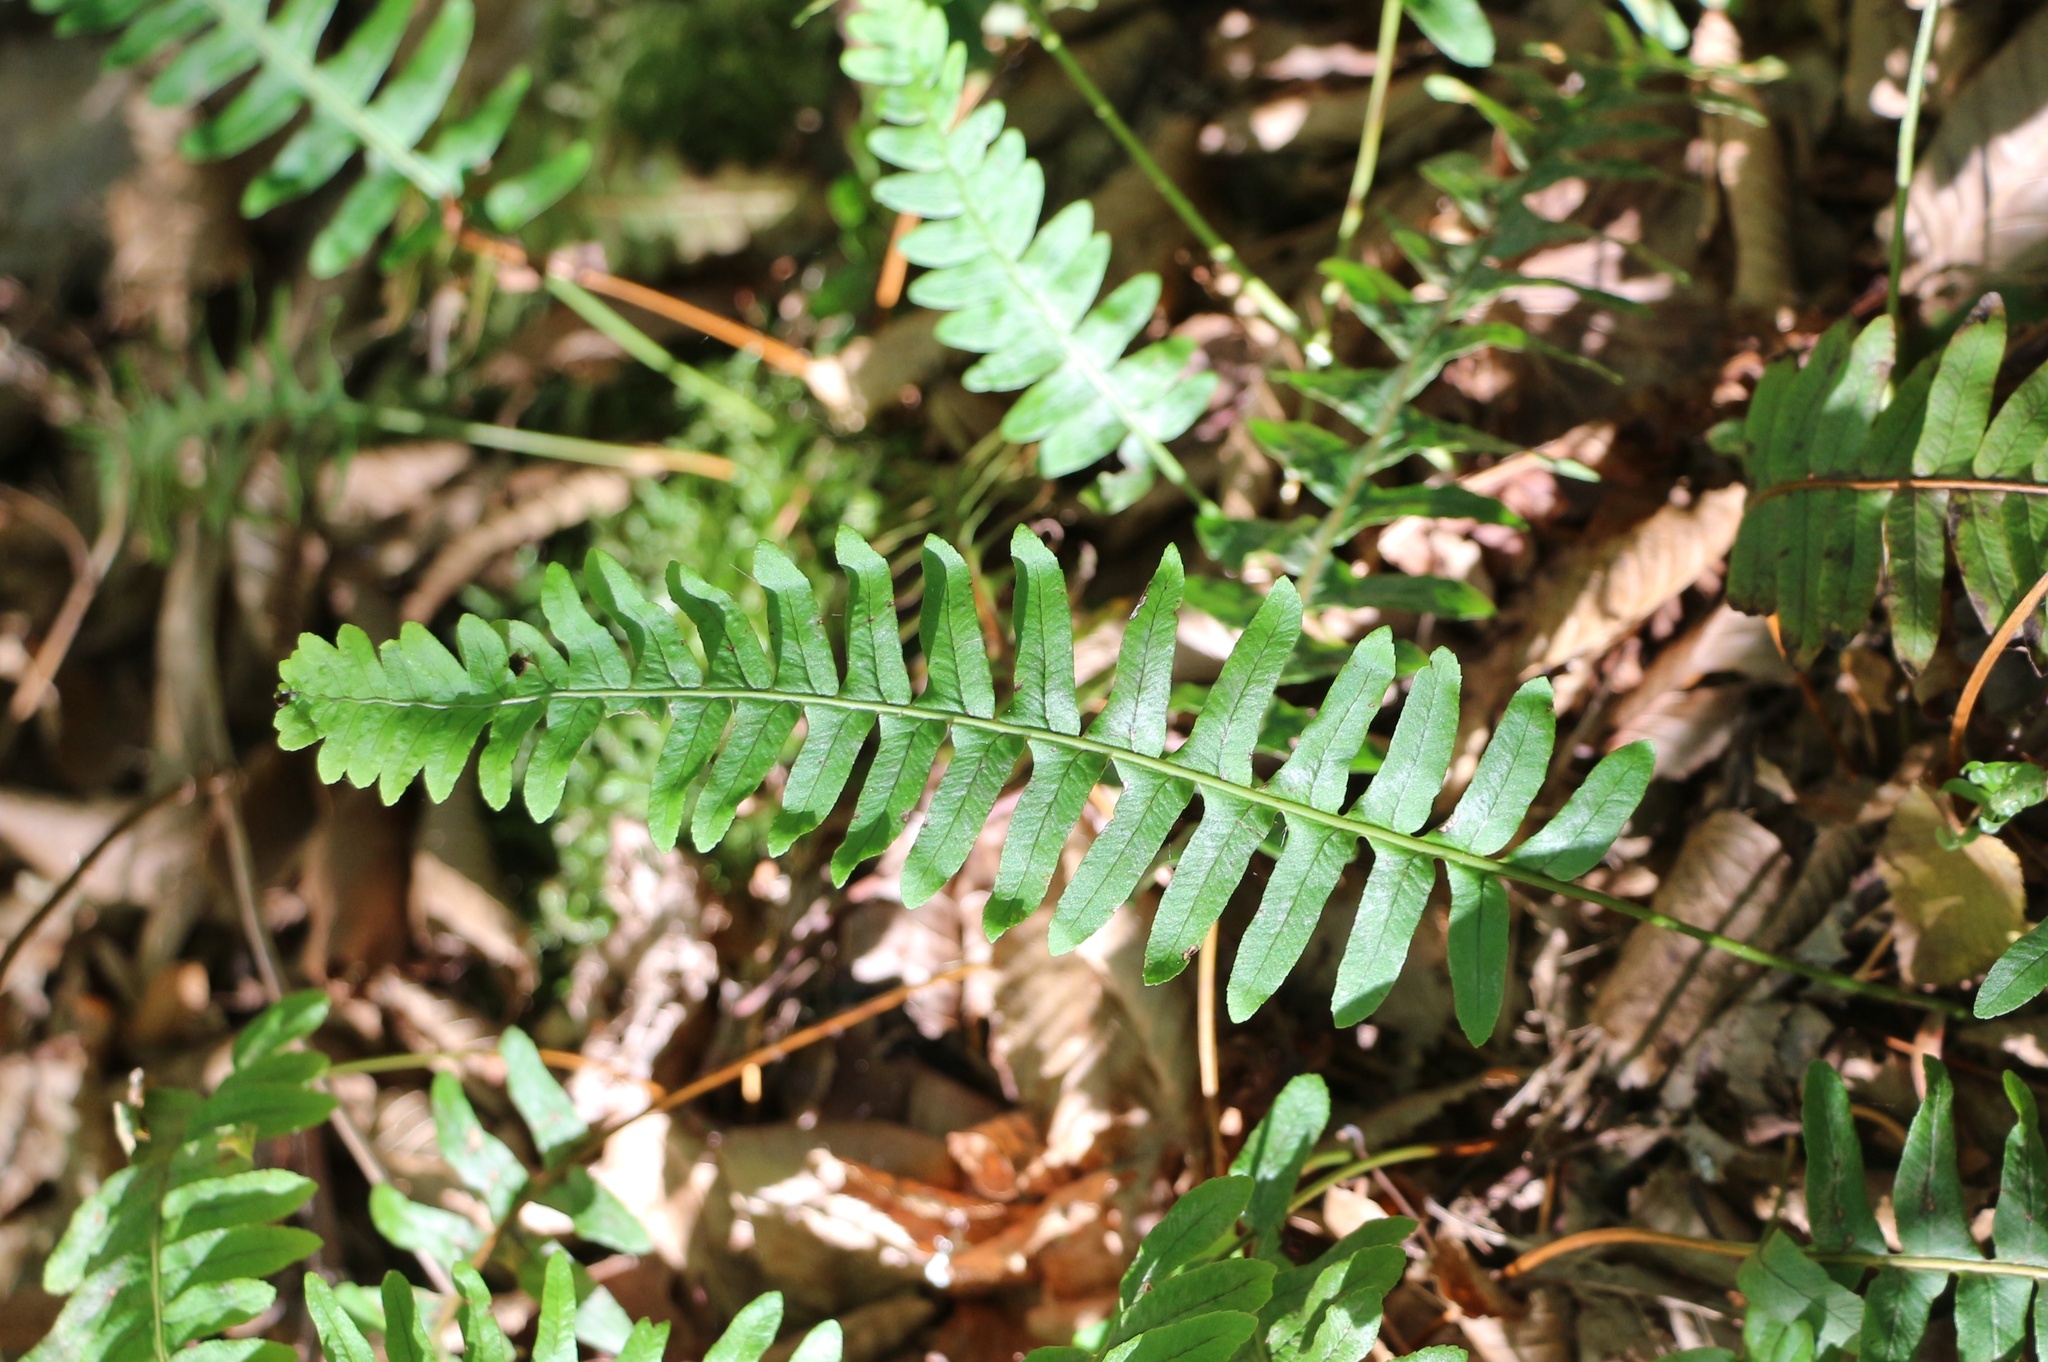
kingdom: Plantae
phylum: Tracheophyta
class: Polypodiopsida
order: Polypodiales
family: Polypodiaceae
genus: Polypodium
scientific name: Polypodium vulgare
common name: Common polypody
